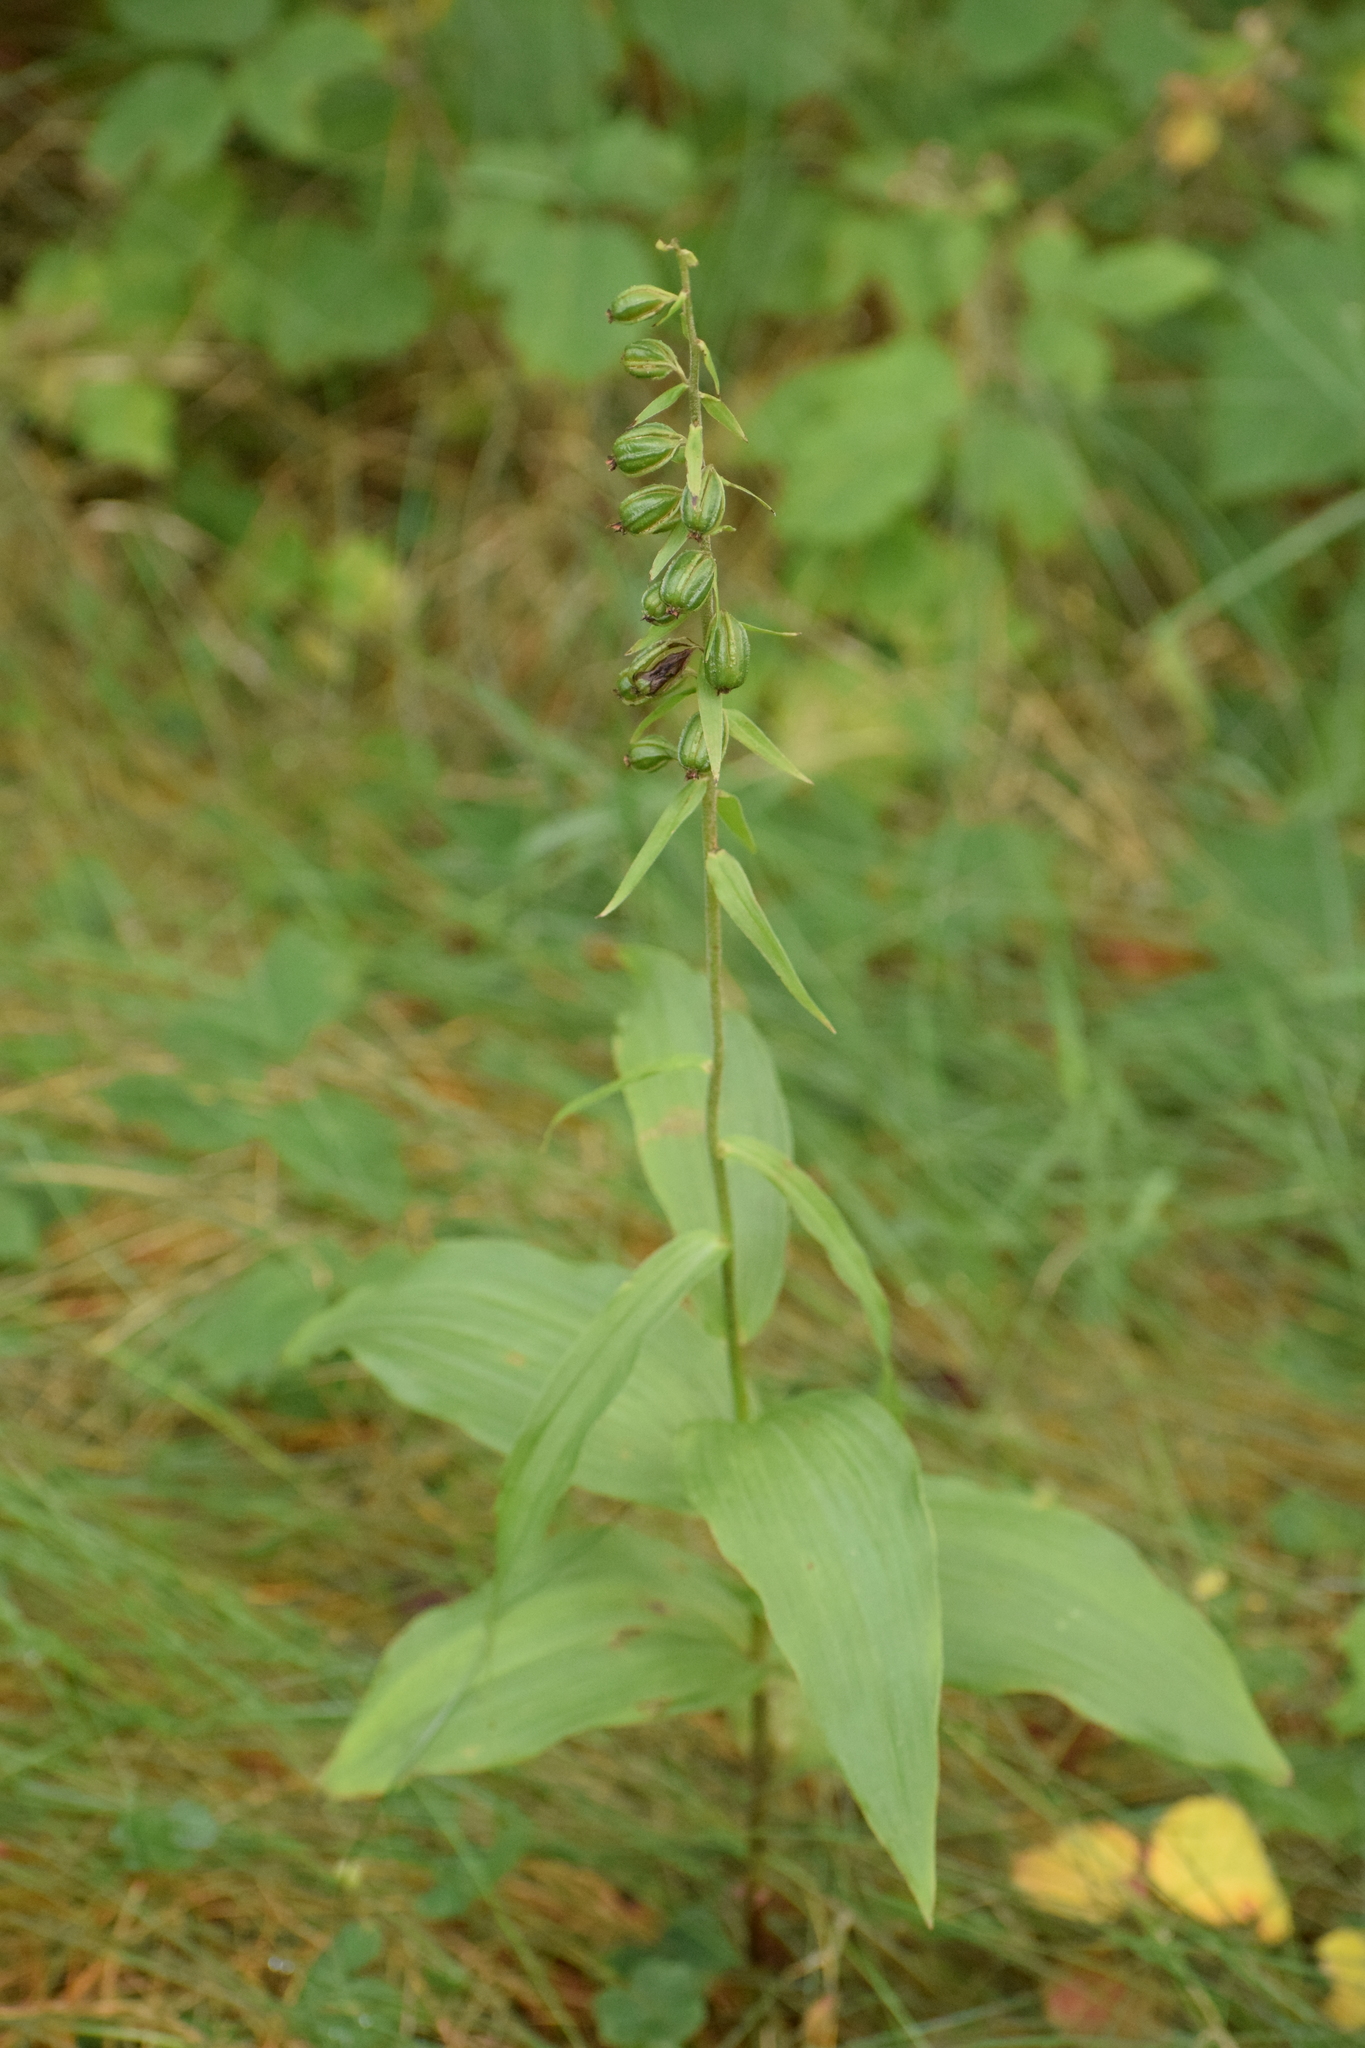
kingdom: Plantae
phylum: Tracheophyta
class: Liliopsida
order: Asparagales
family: Orchidaceae
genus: Epipactis
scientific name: Epipactis helleborine
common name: Broad-leaved helleborine
